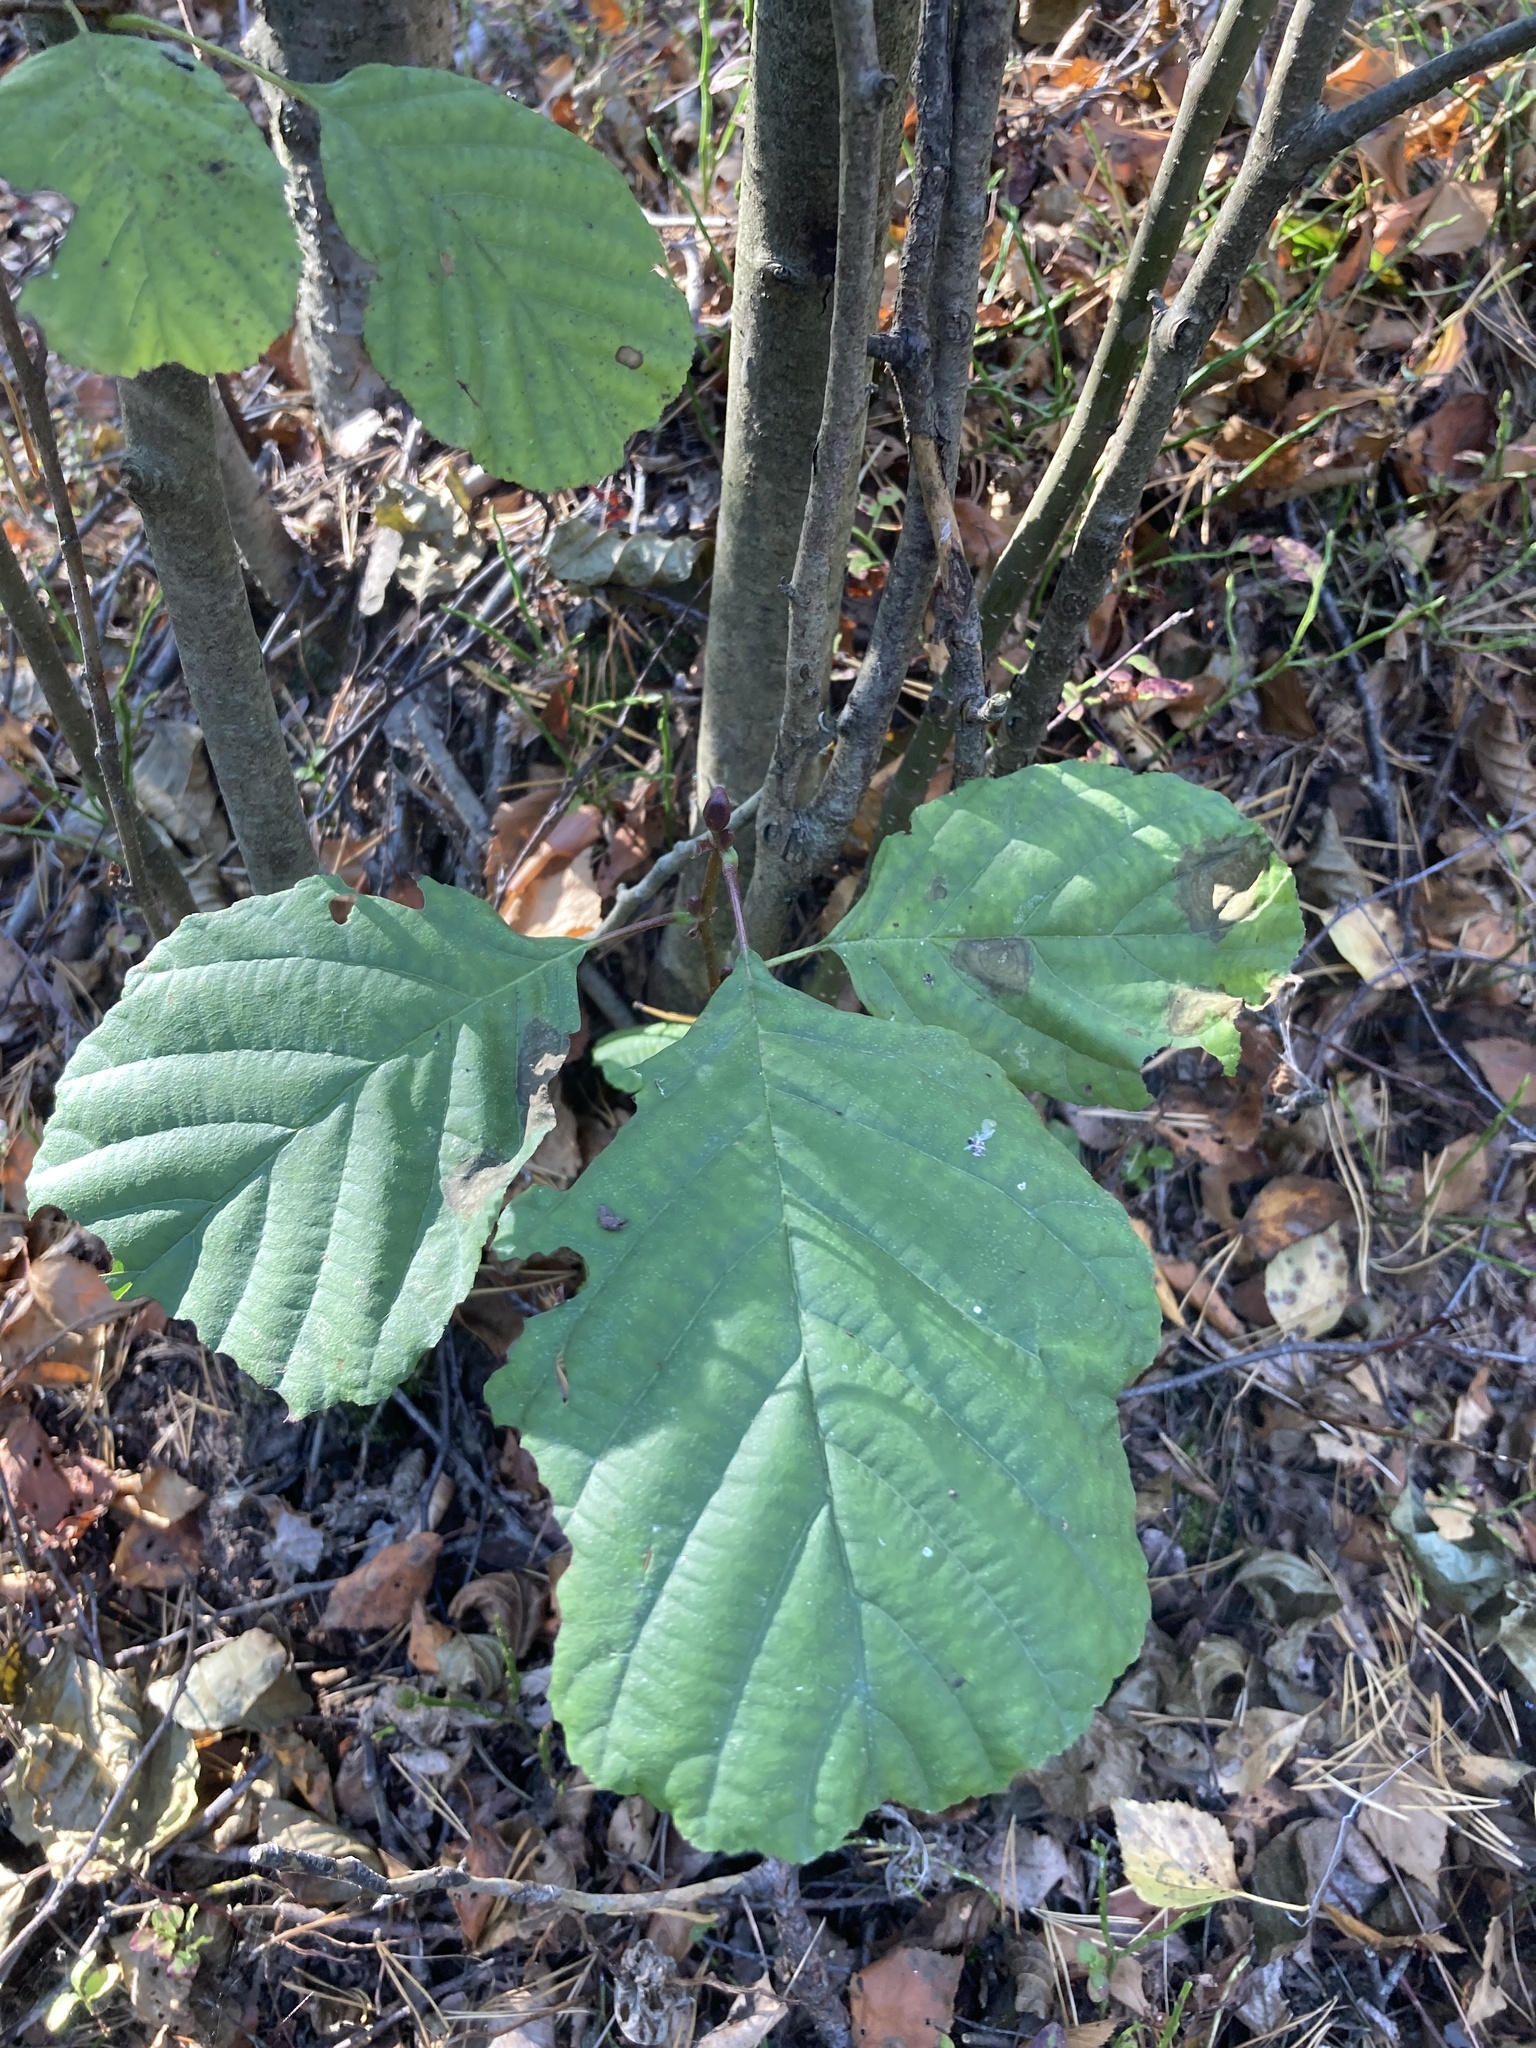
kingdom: Plantae
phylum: Tracheophyta
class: Magnoliopsida
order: Fagales
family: Betulaceae
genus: Alnus
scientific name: Alnus glutinosa
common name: Black alder
